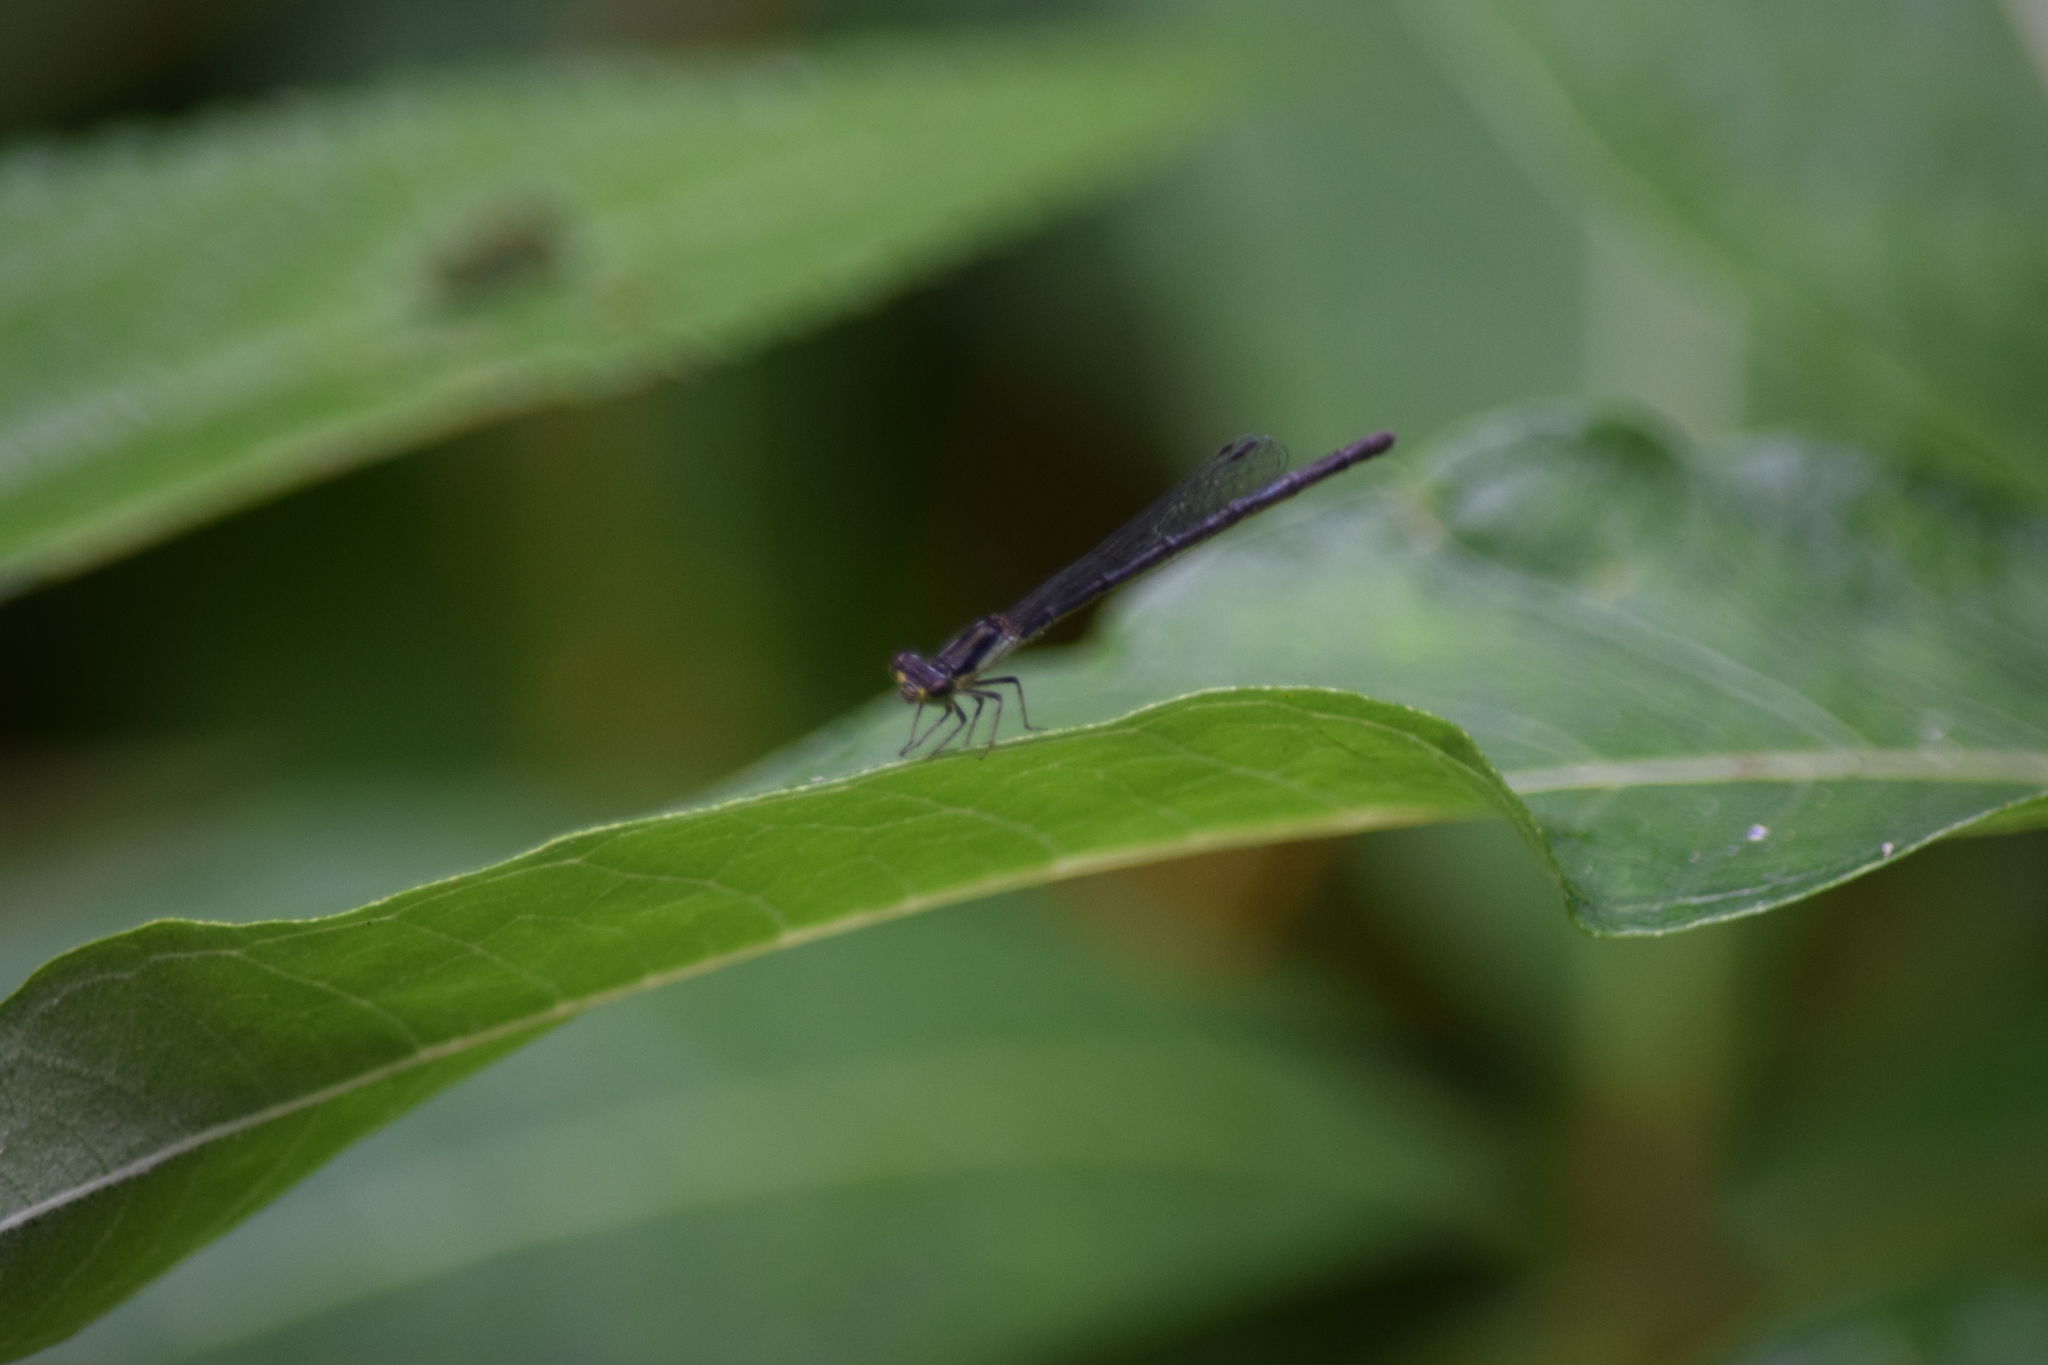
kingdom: Animalia
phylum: Arthropoda
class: Insecta
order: Odonata
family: Coenagrionidae
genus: Ischnura
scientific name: Ischnura posita
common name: Fragile forktail
